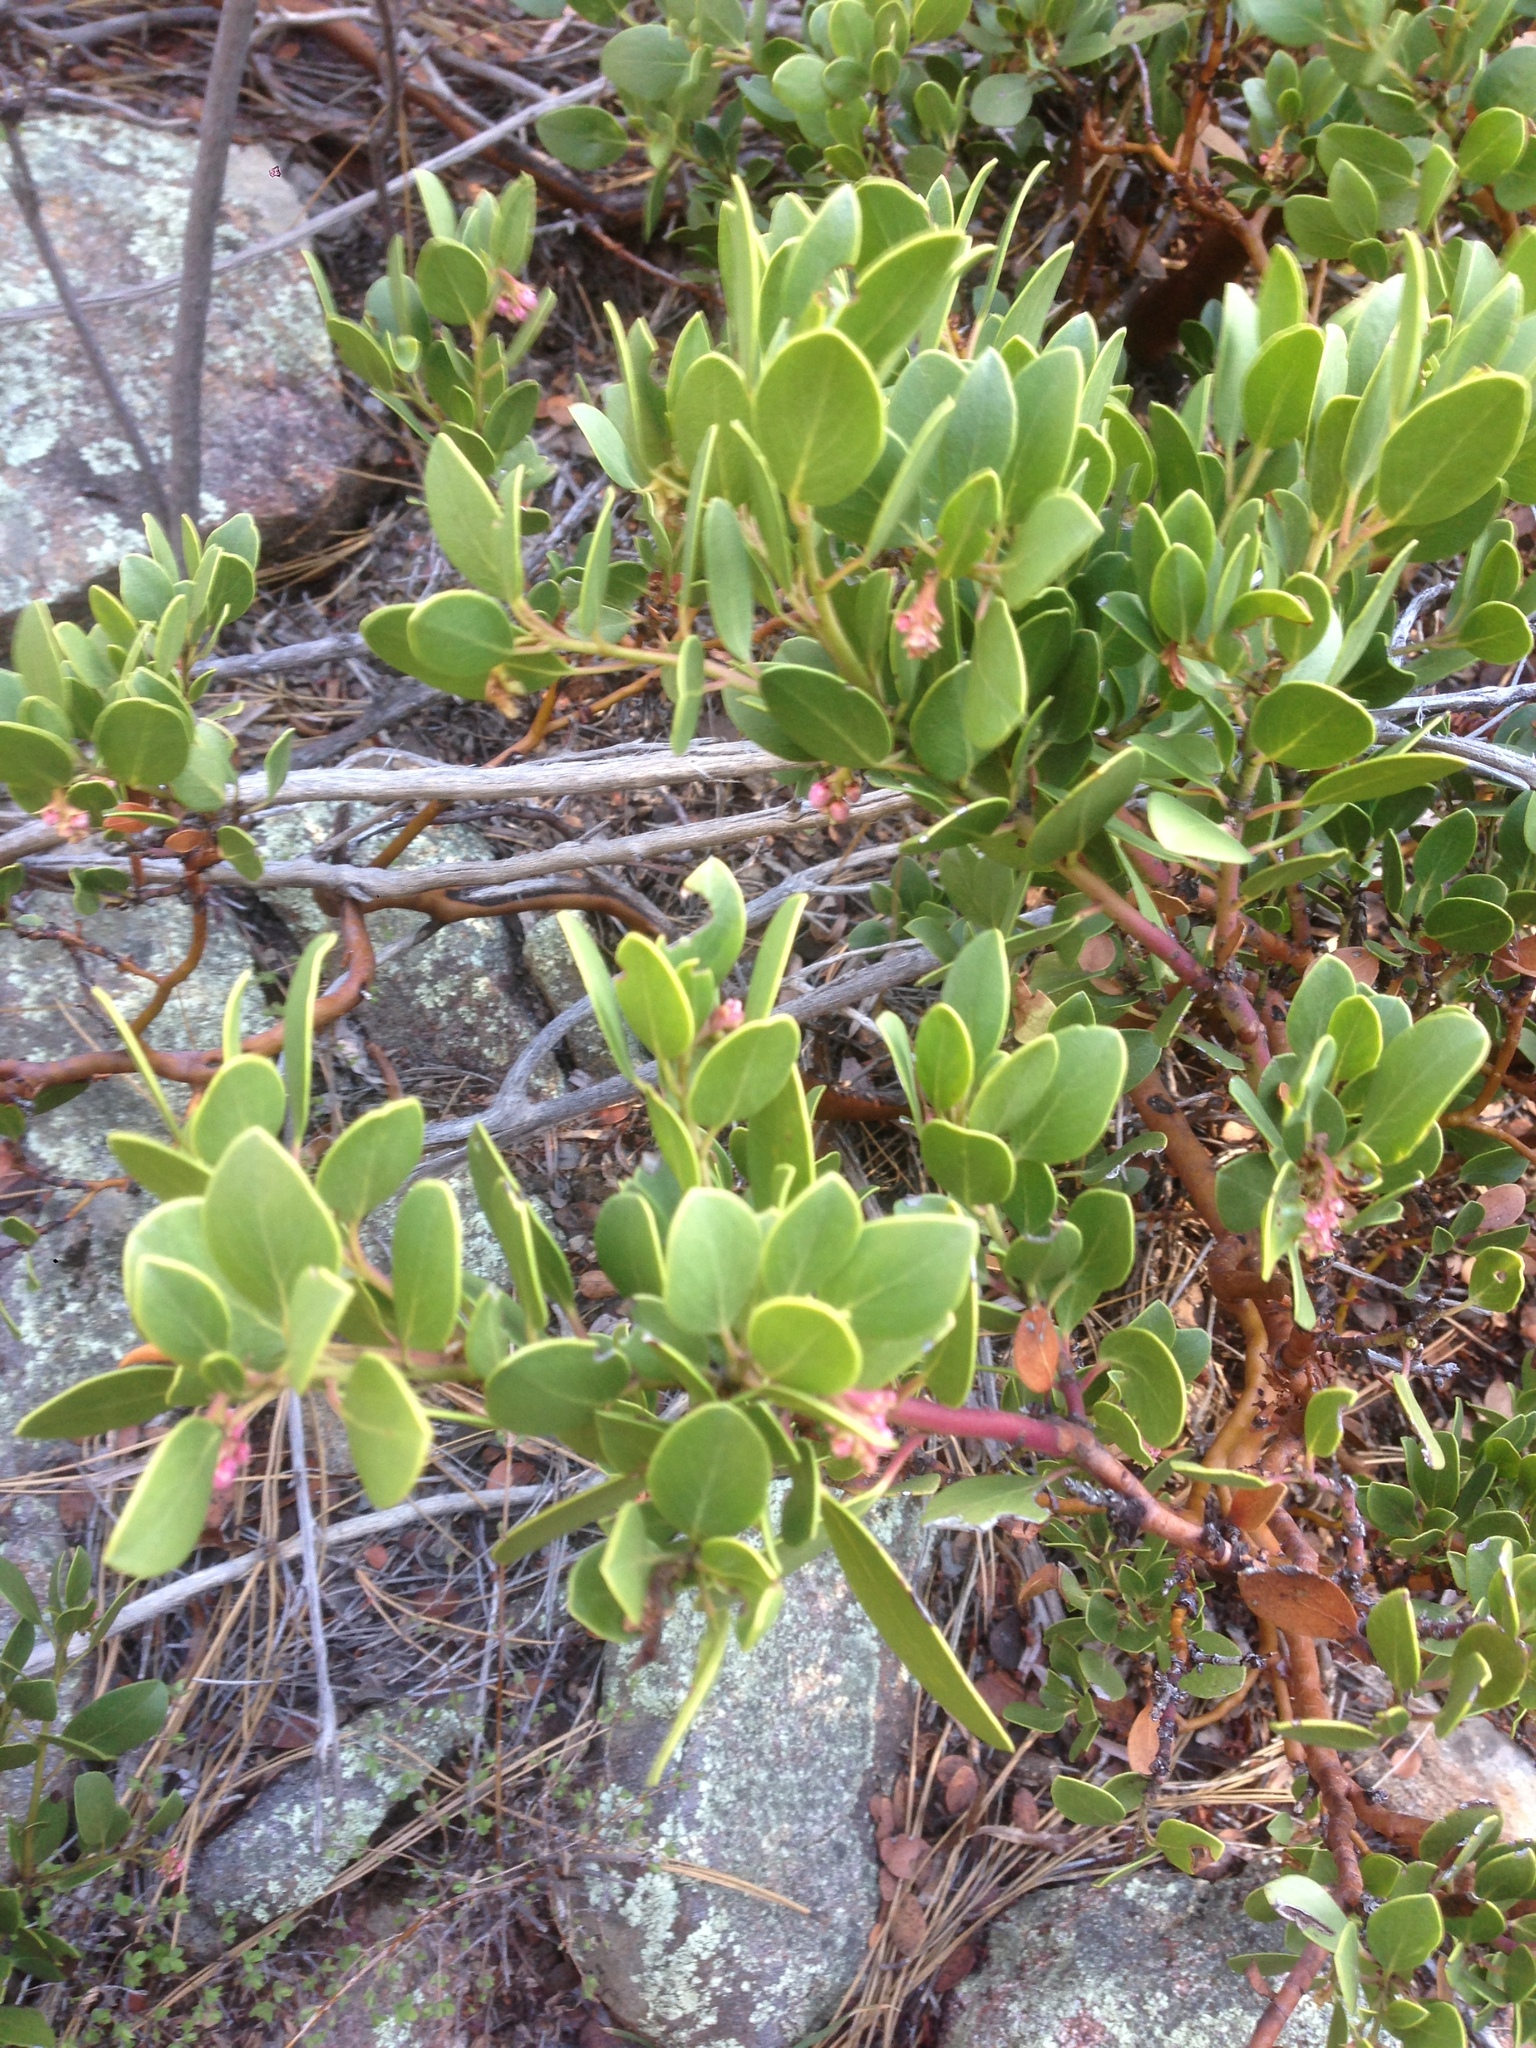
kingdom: Plantae
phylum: Tracheophyta
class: Magnoliopsida
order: Ericales
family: Ericaceae
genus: Arctostaphylos
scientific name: Arctostaphylos patula
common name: Green-leaf manzanita
